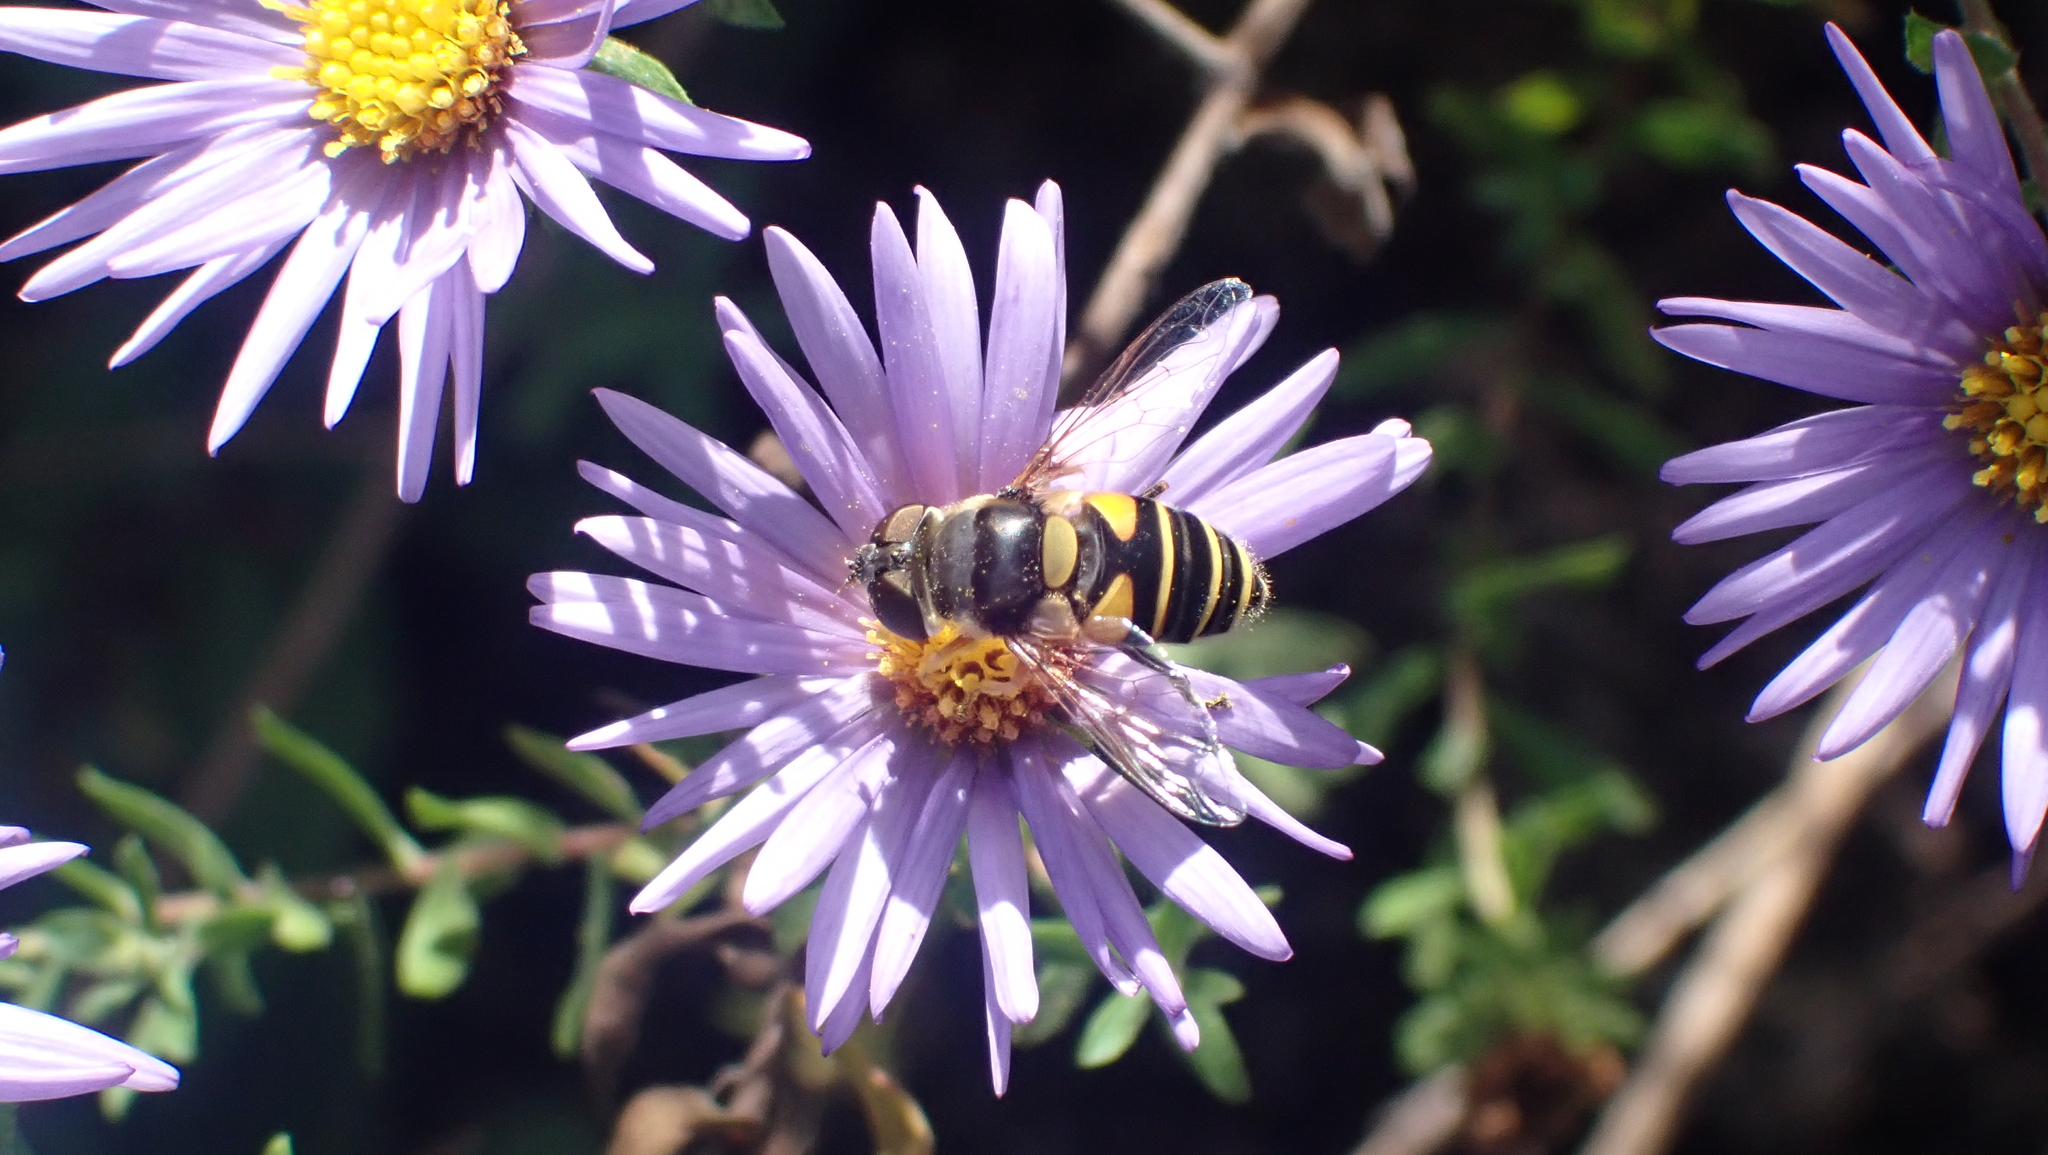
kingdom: Animalia
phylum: Arthropoda
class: Insecta
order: Diptera
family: Syrphidae
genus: Eristalis
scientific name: Eristalis transversa
